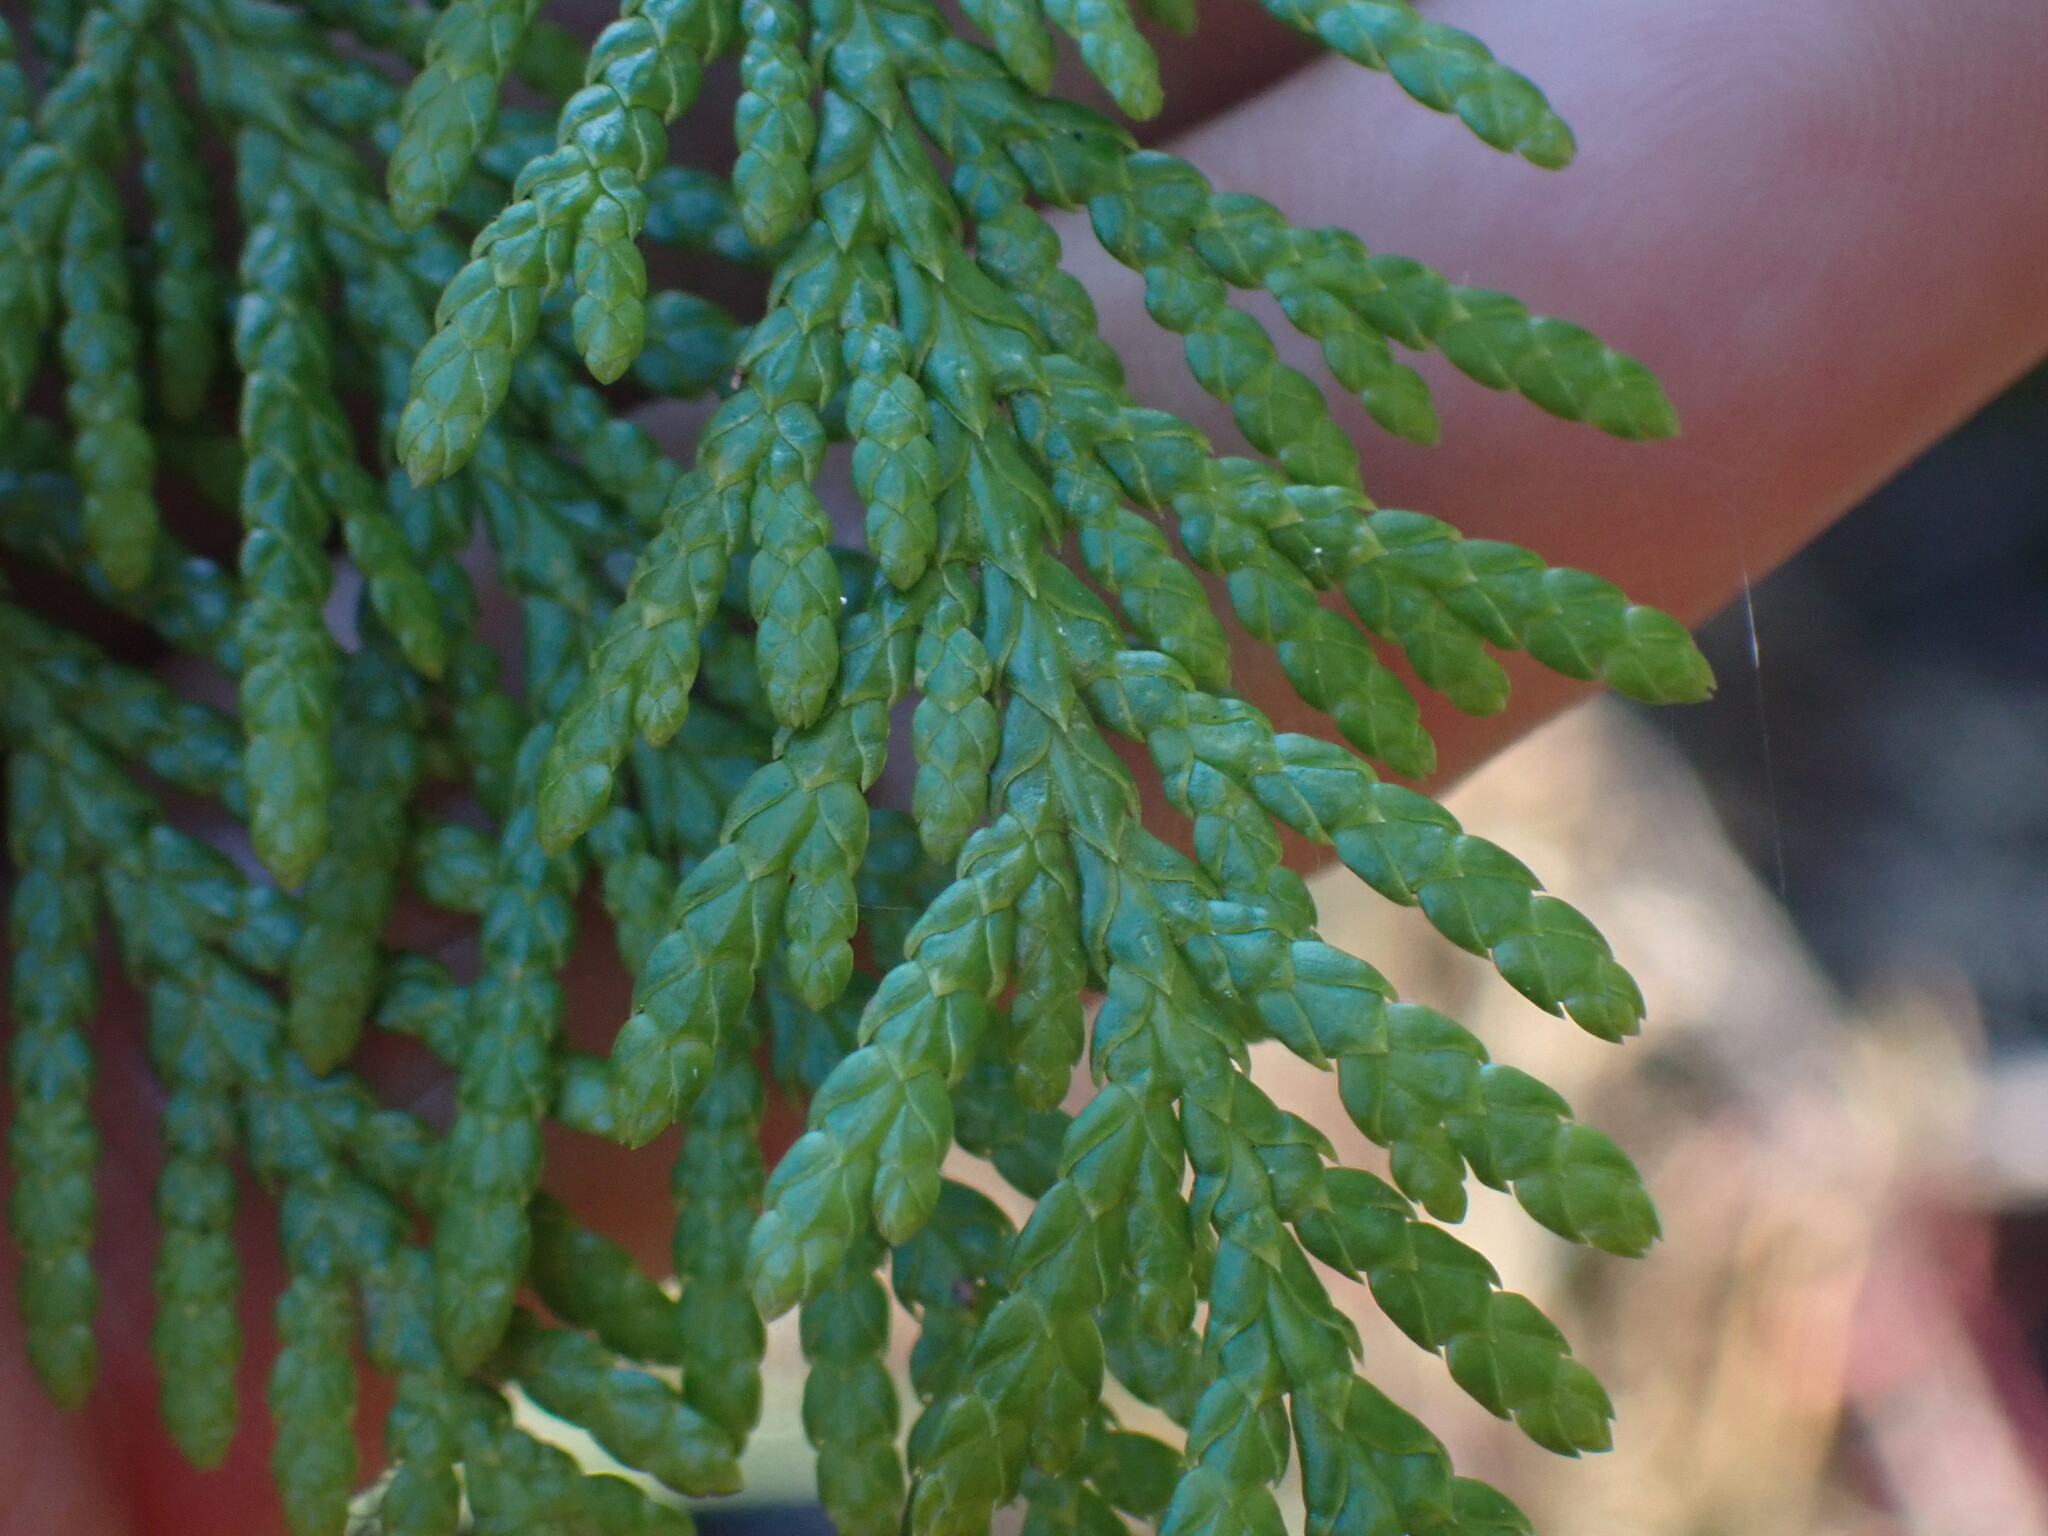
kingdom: Plantae
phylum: Tracheophyta
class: Pinopsida
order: Pinales
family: Cupressaceae
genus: Thuja
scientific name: Thuja plicata
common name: Western red-cedar
